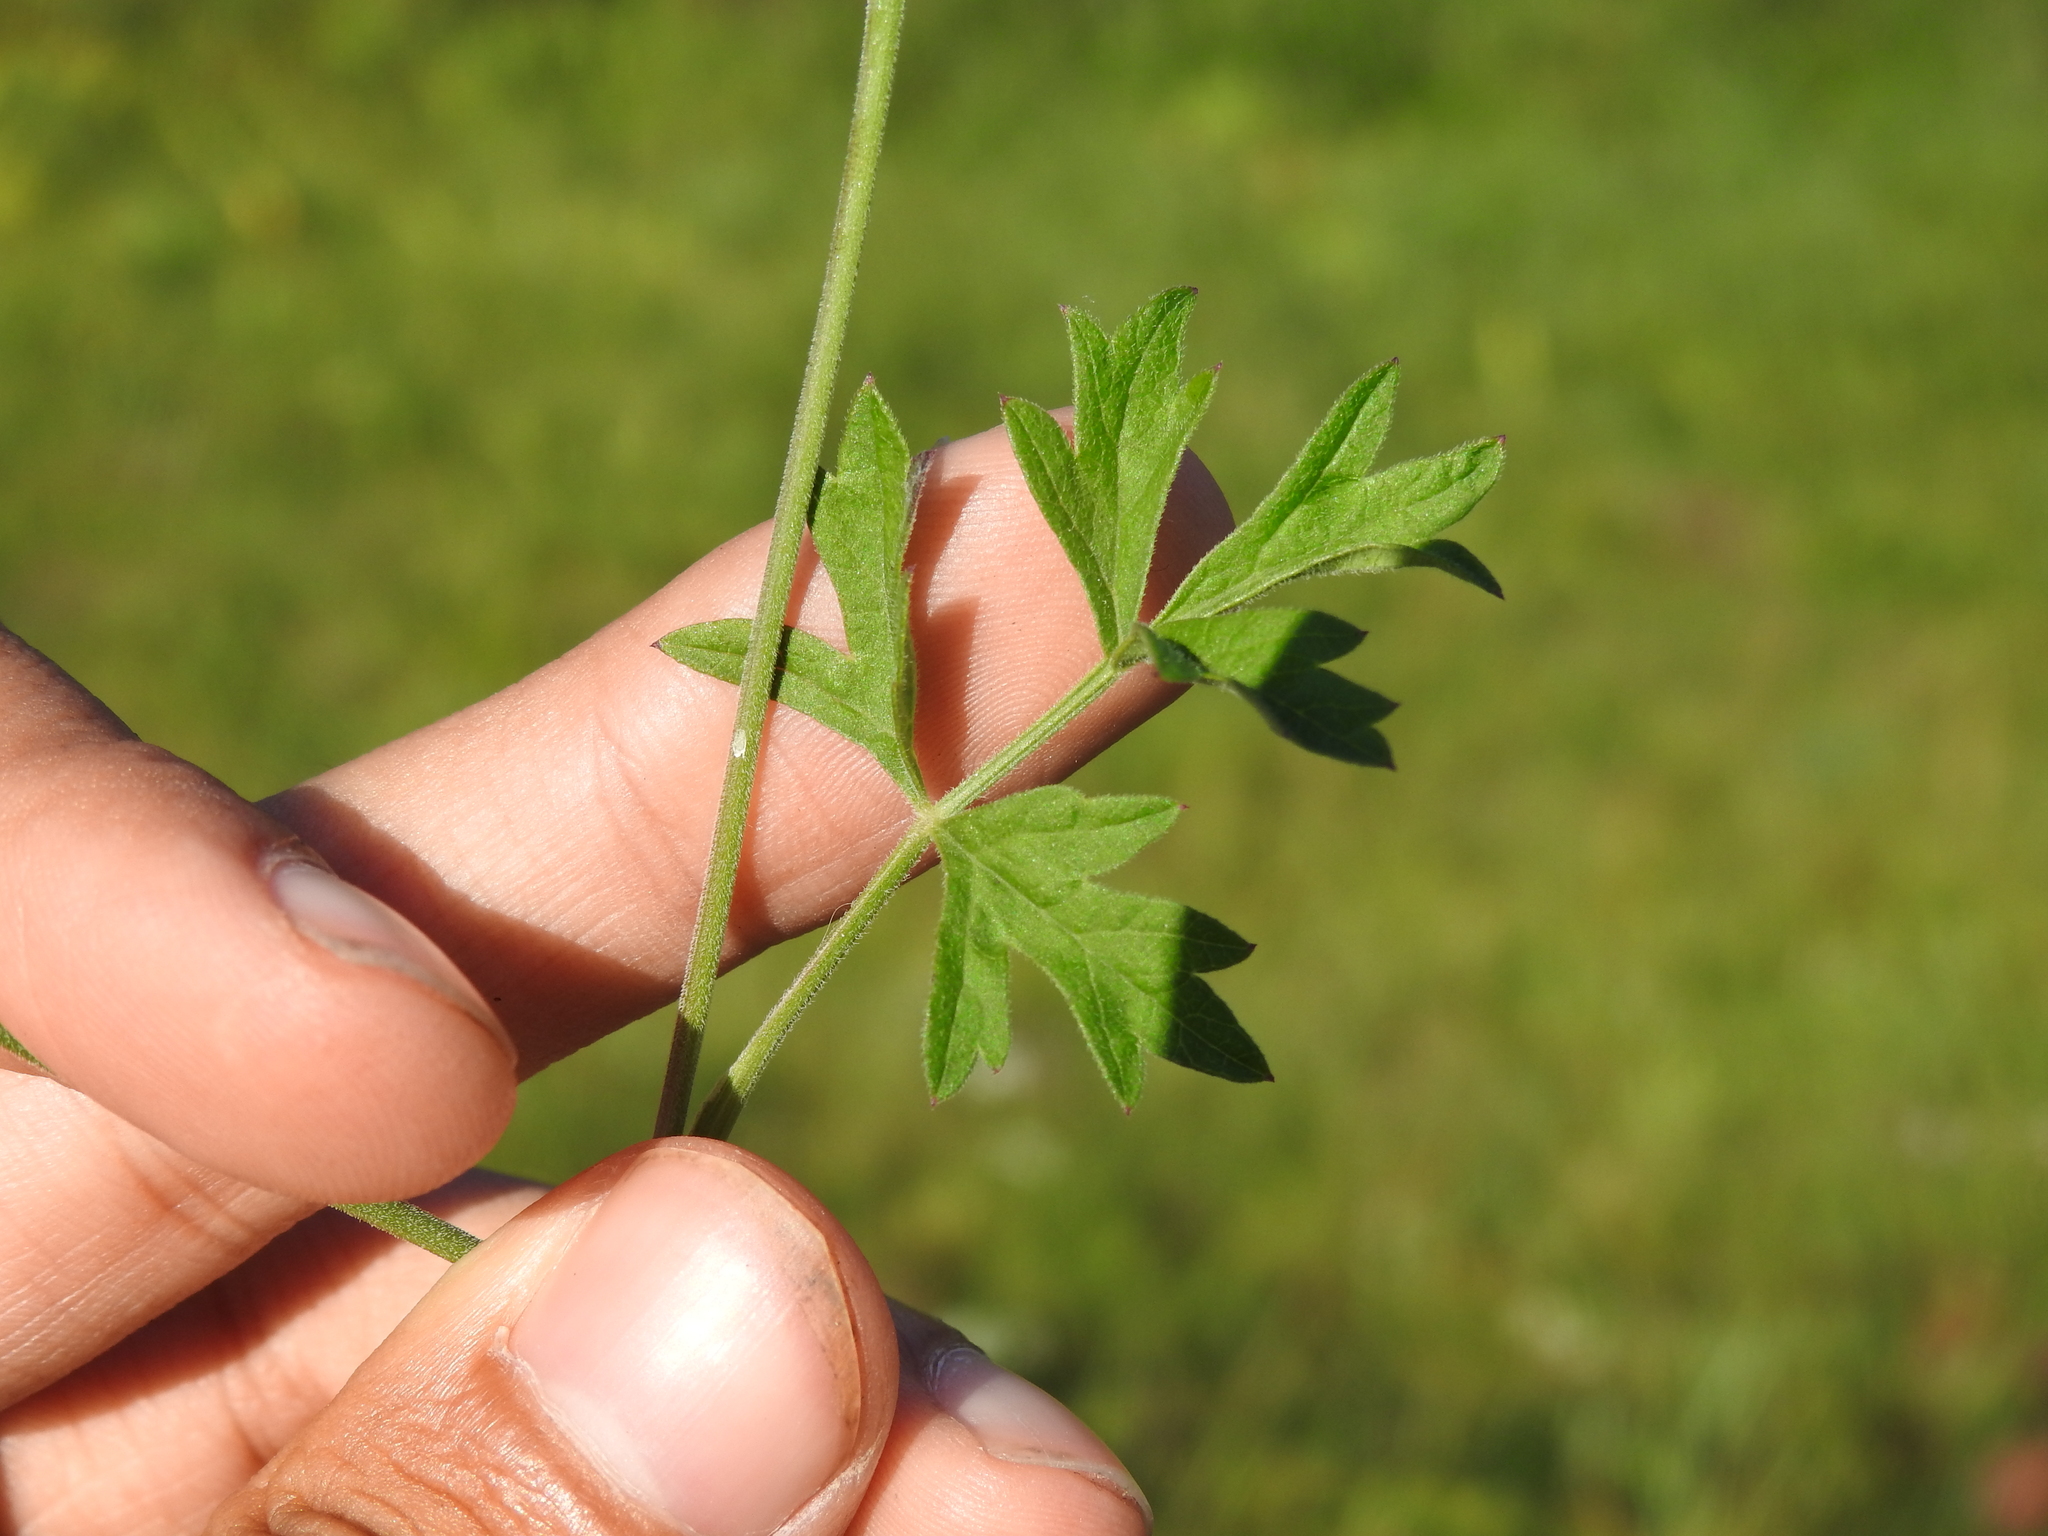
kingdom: Plantae
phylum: Tracheophyta
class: Magnoliopsida
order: Apiales
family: Apiaceae
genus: Pimpinella
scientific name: Pimpinella saxifraga
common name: Burnet-saxifrage
